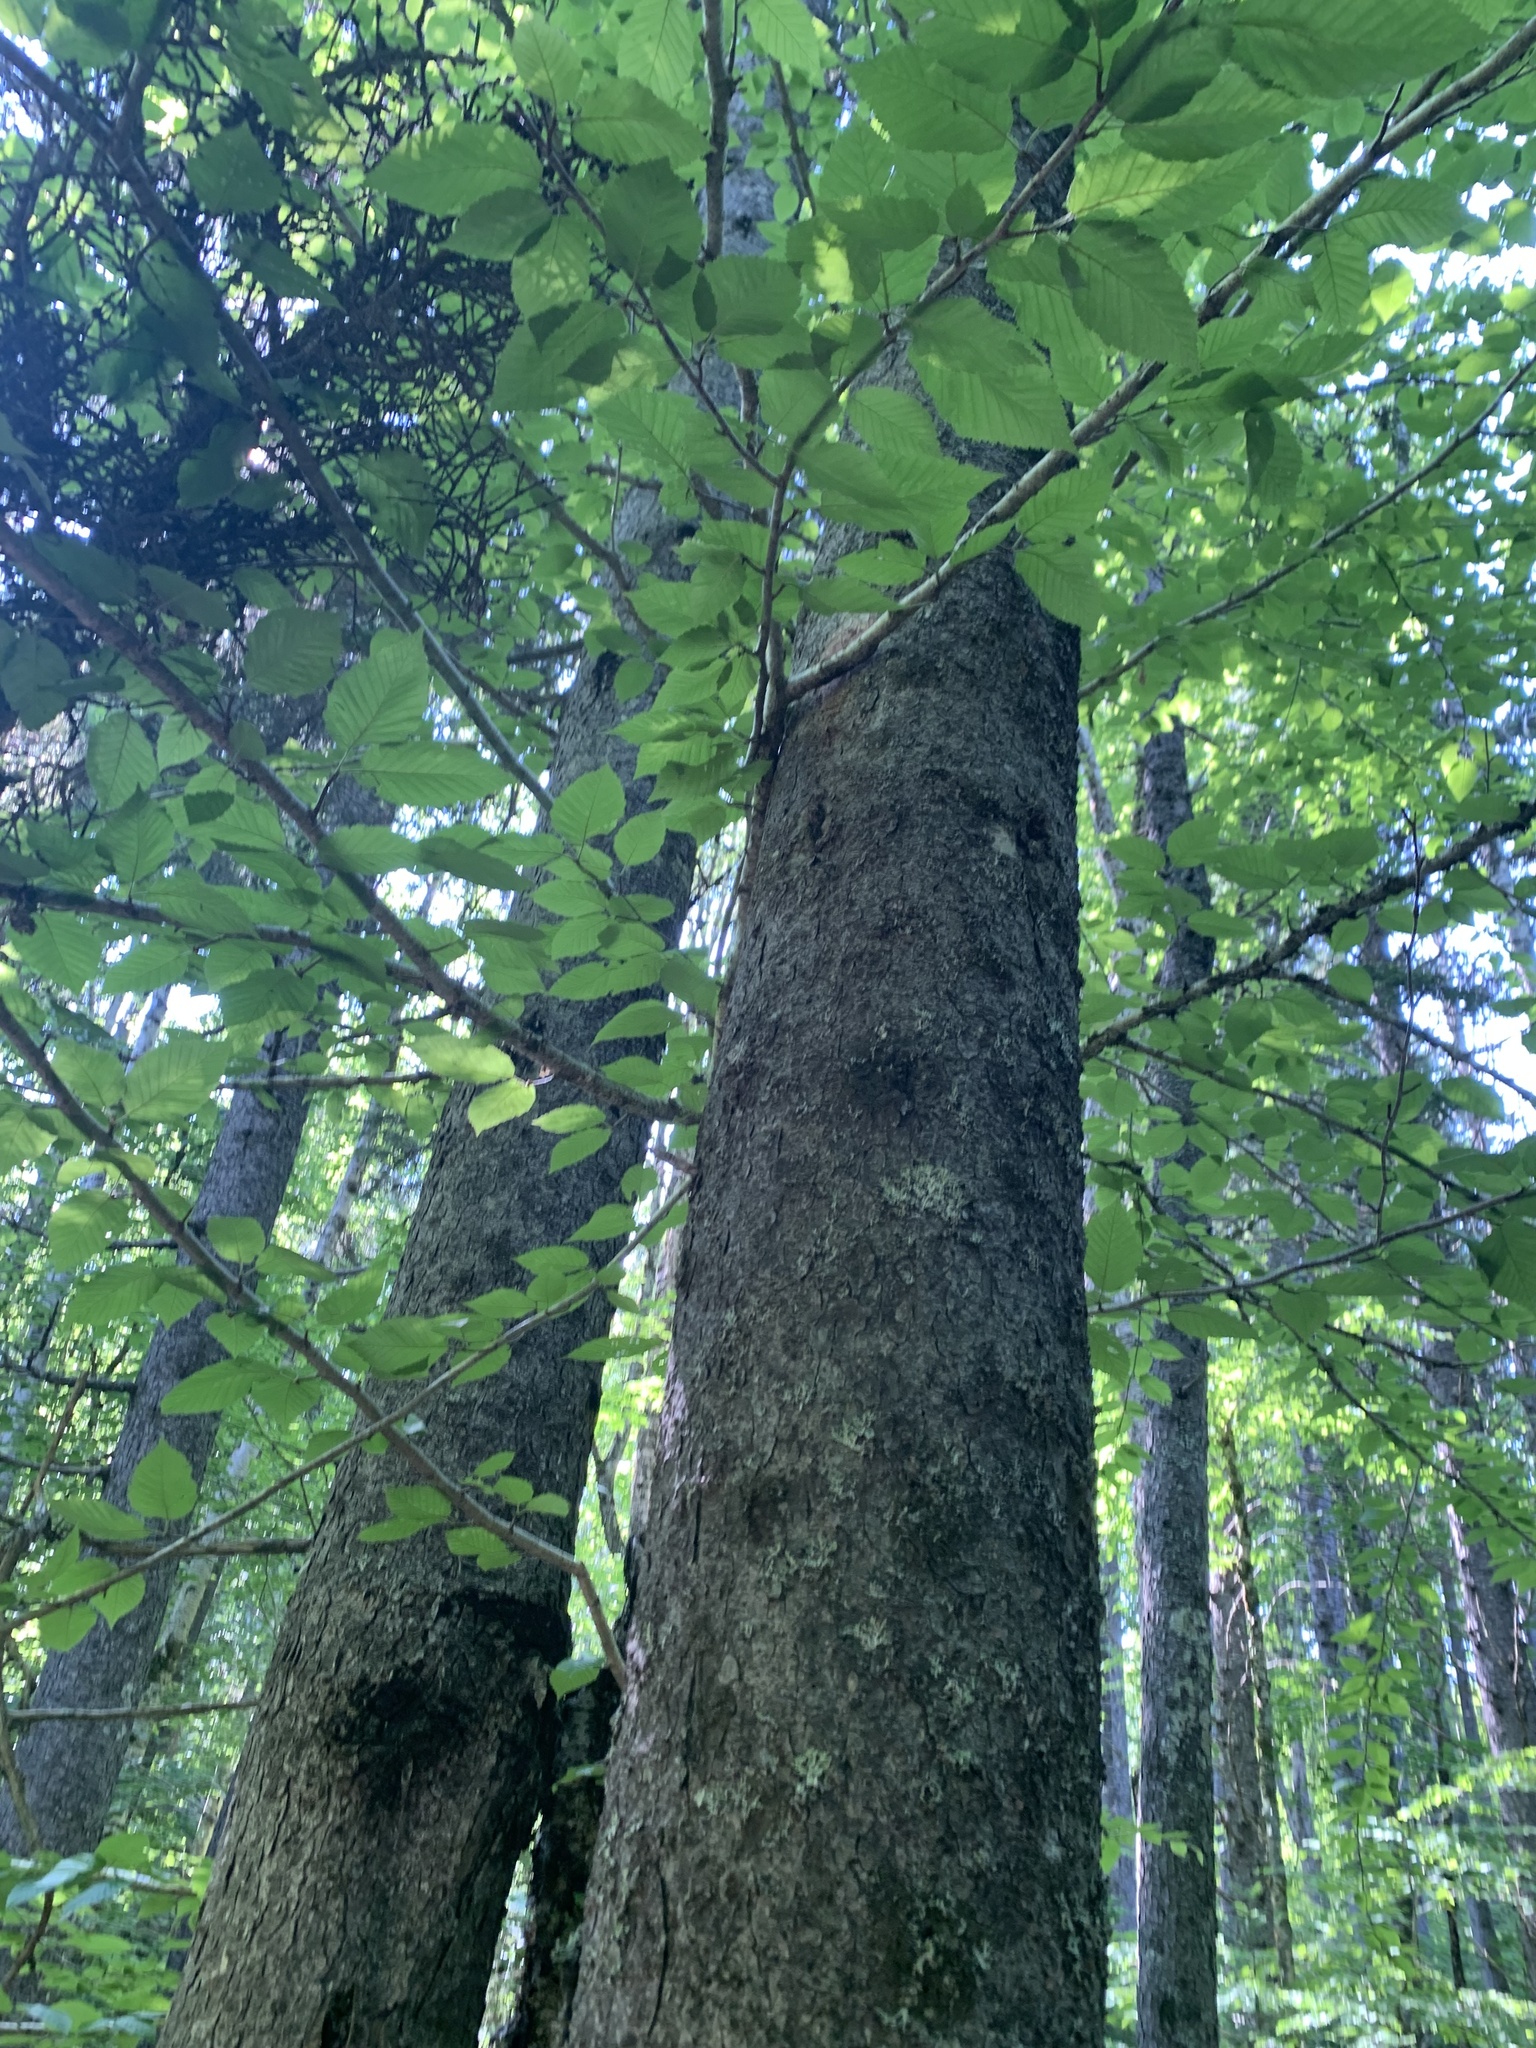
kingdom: Plantae
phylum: Tracheophyta
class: Magnoliopsida
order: Fagales
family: Betulaceae
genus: Betula
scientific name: Betula alleghaniensis
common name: Yellow birch
